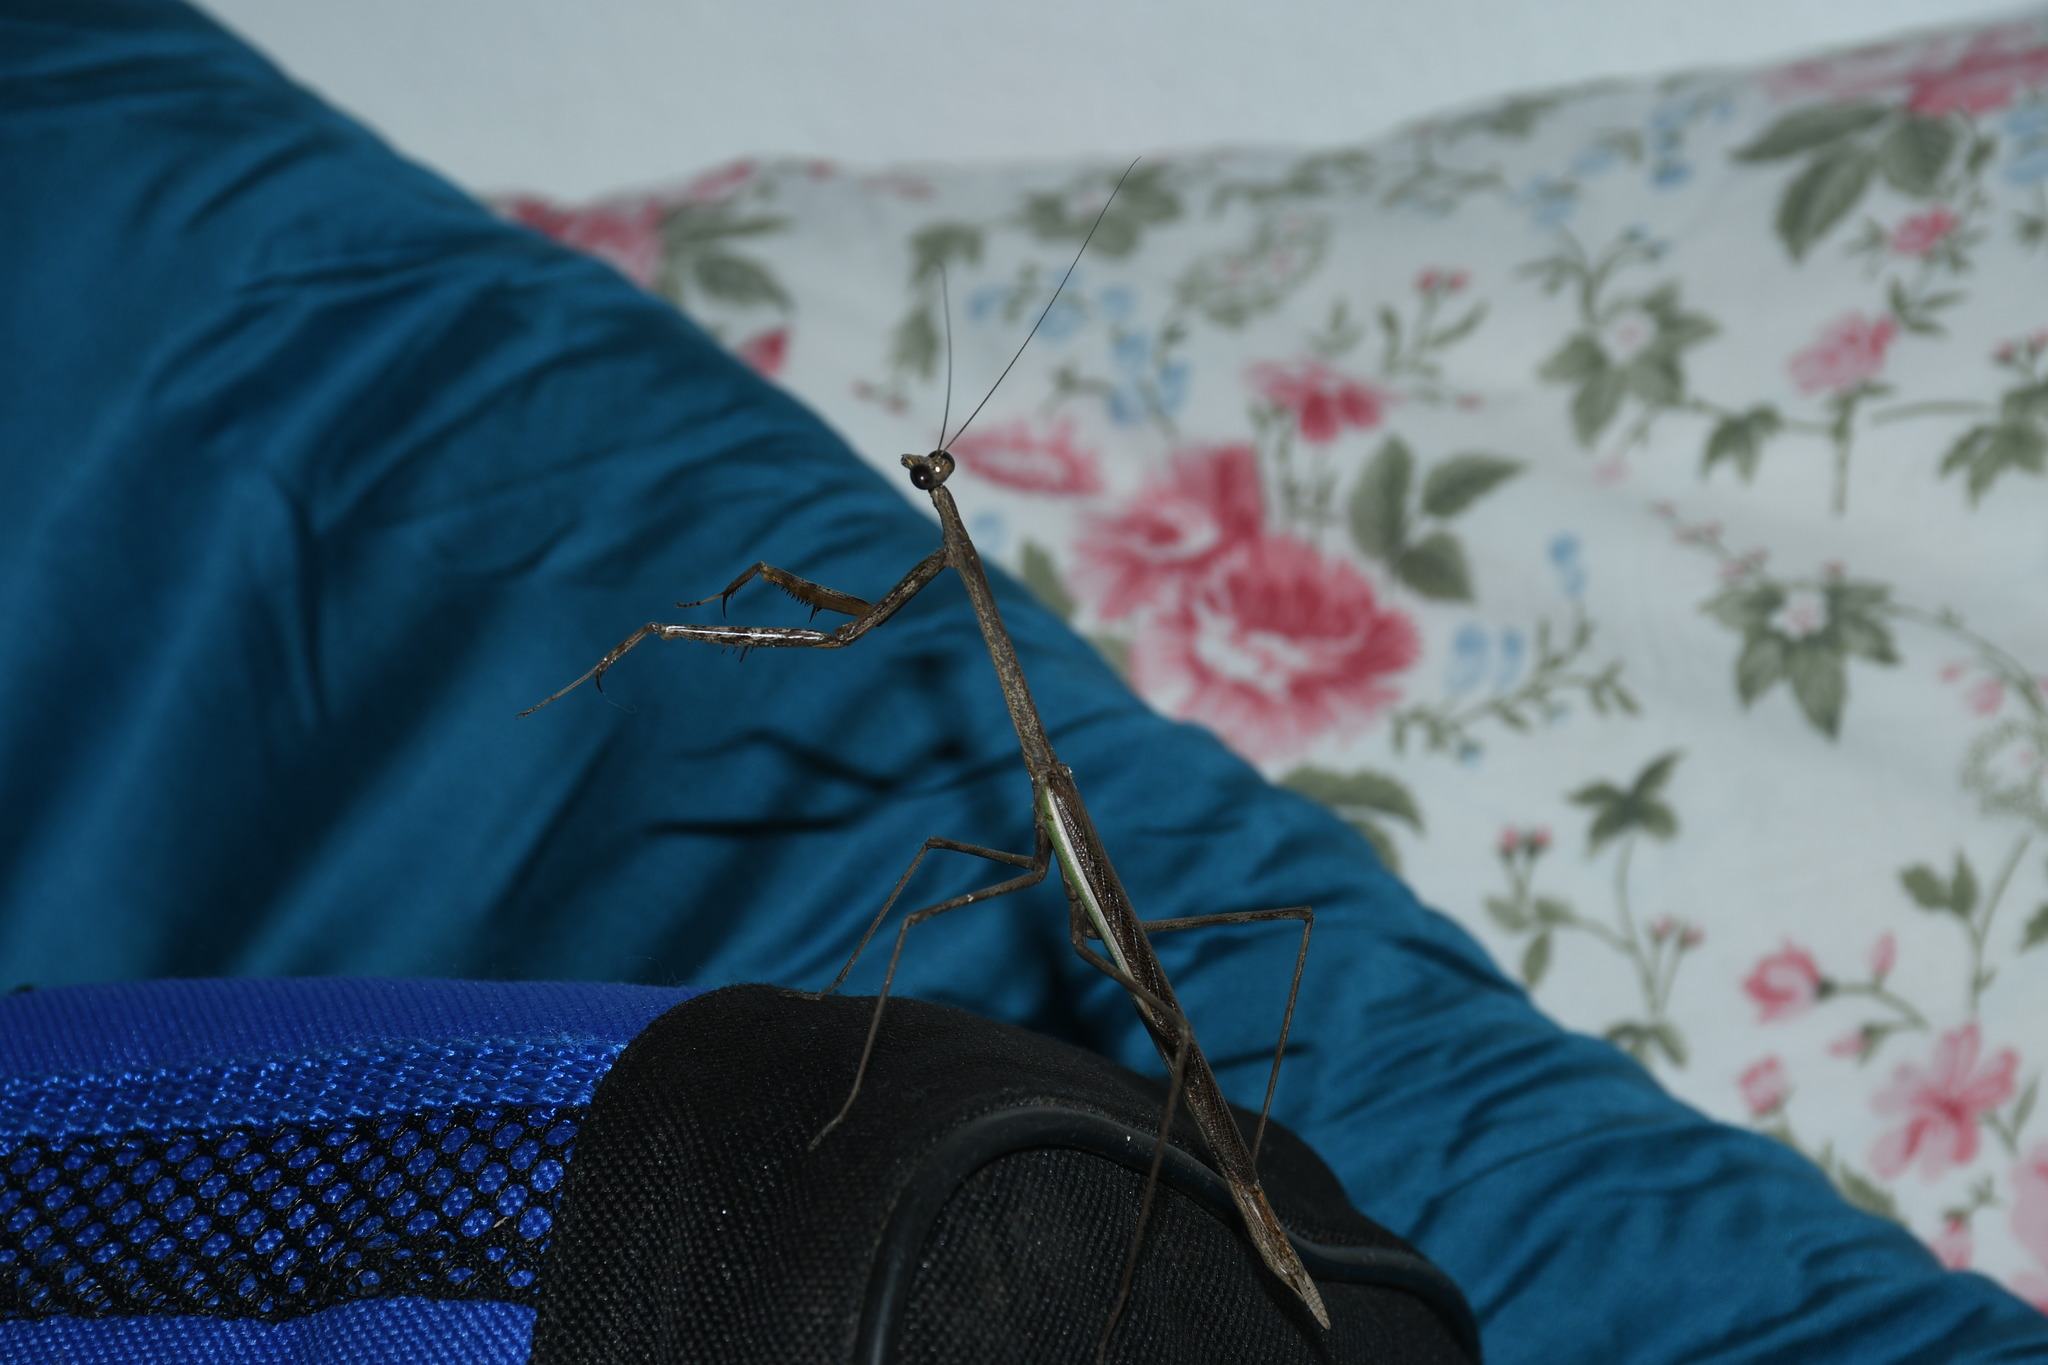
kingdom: Animalia
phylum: Arthropoda
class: Insecta
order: Mantodea
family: Mantidae
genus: Phasmomantis
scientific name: Phasmomantis sumichrasti
